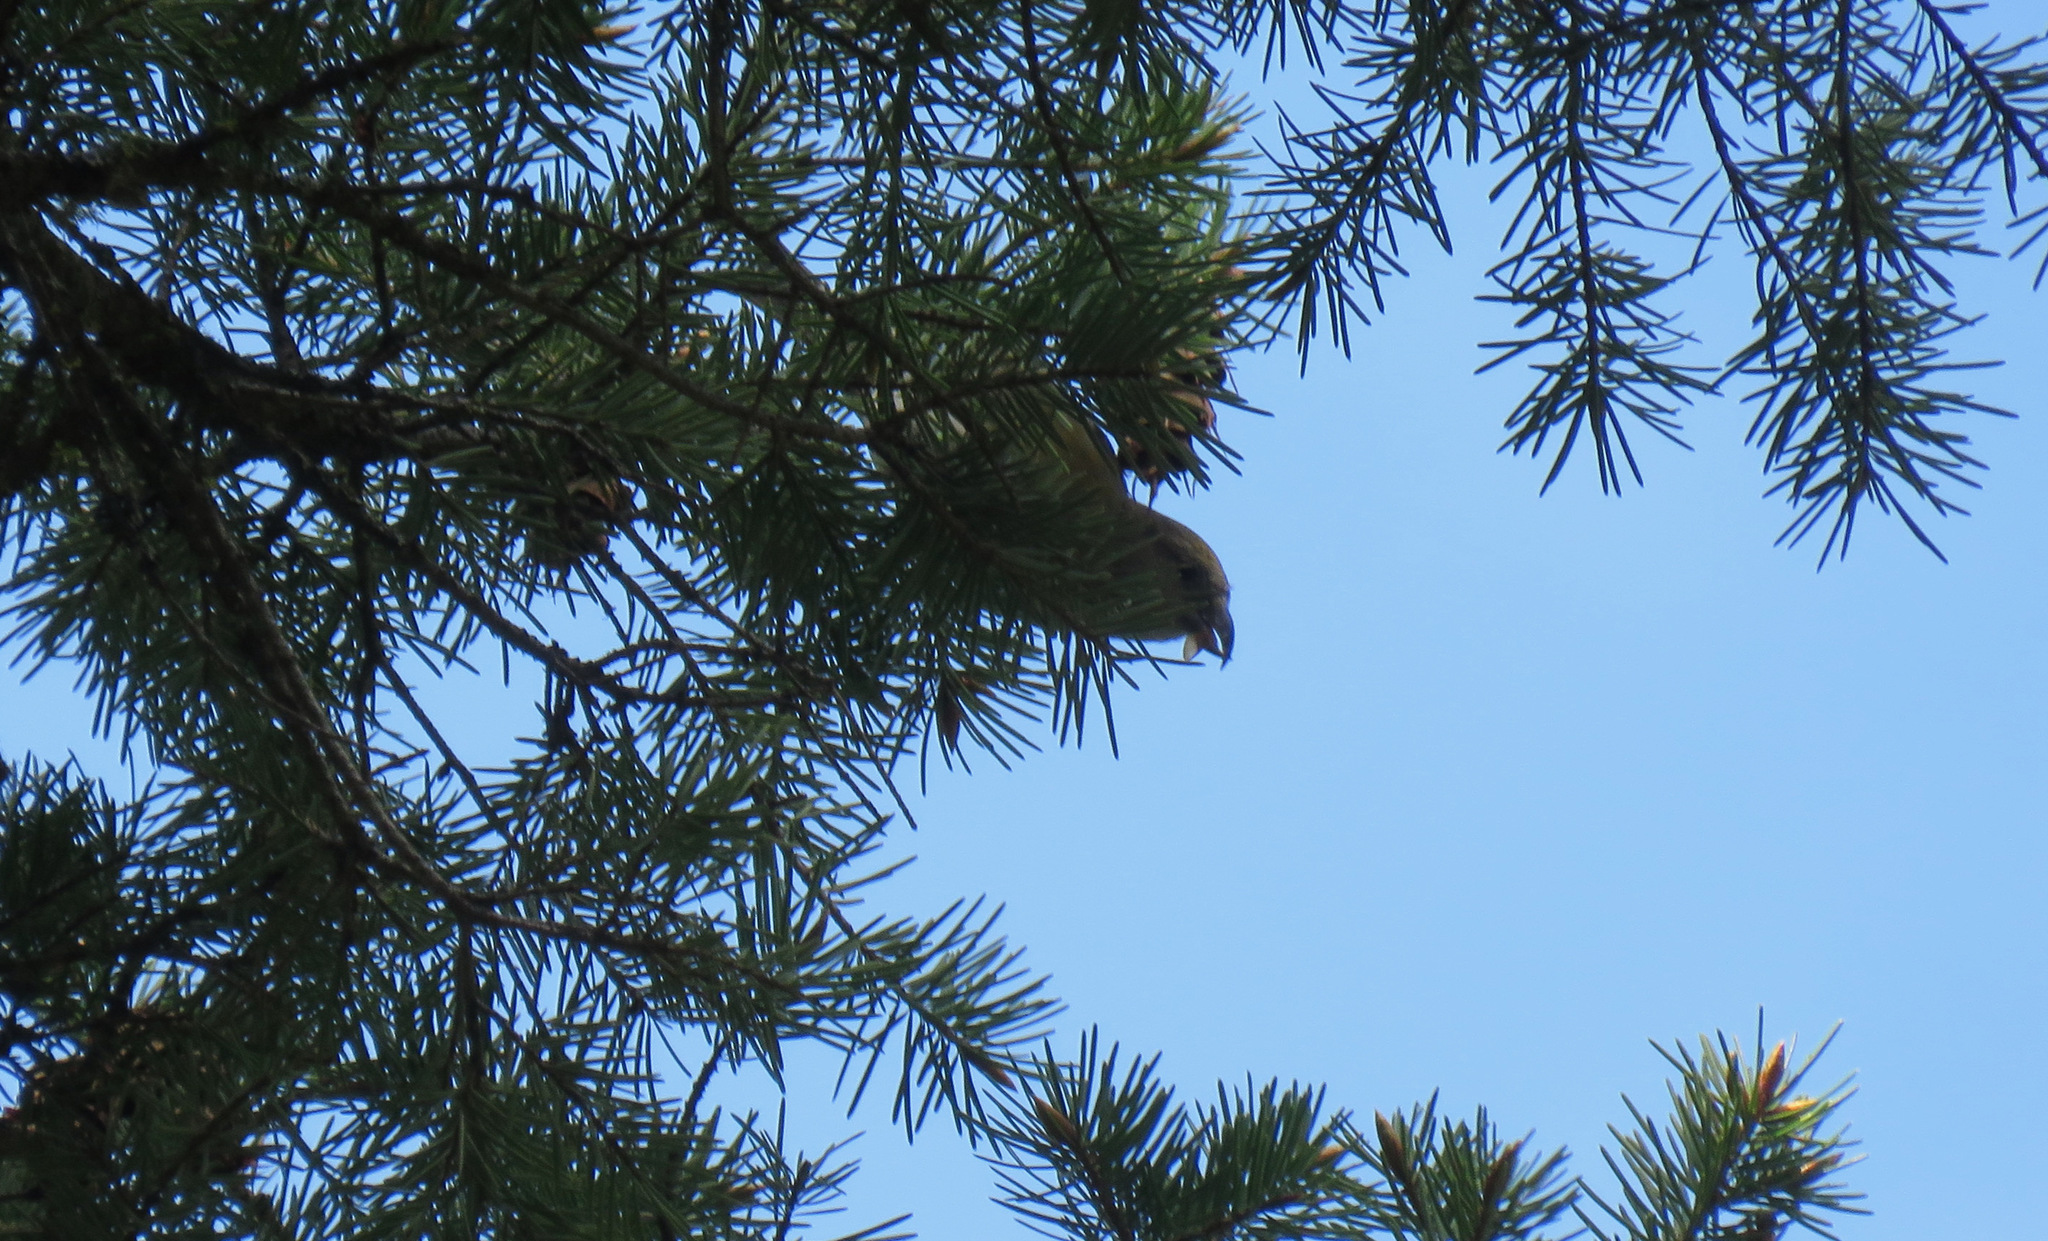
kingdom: Animalia
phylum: Chordata
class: Aves
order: Passeriformes
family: Fringillidae
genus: Loxia
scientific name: Loxia curvirostra
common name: Red crossbill
